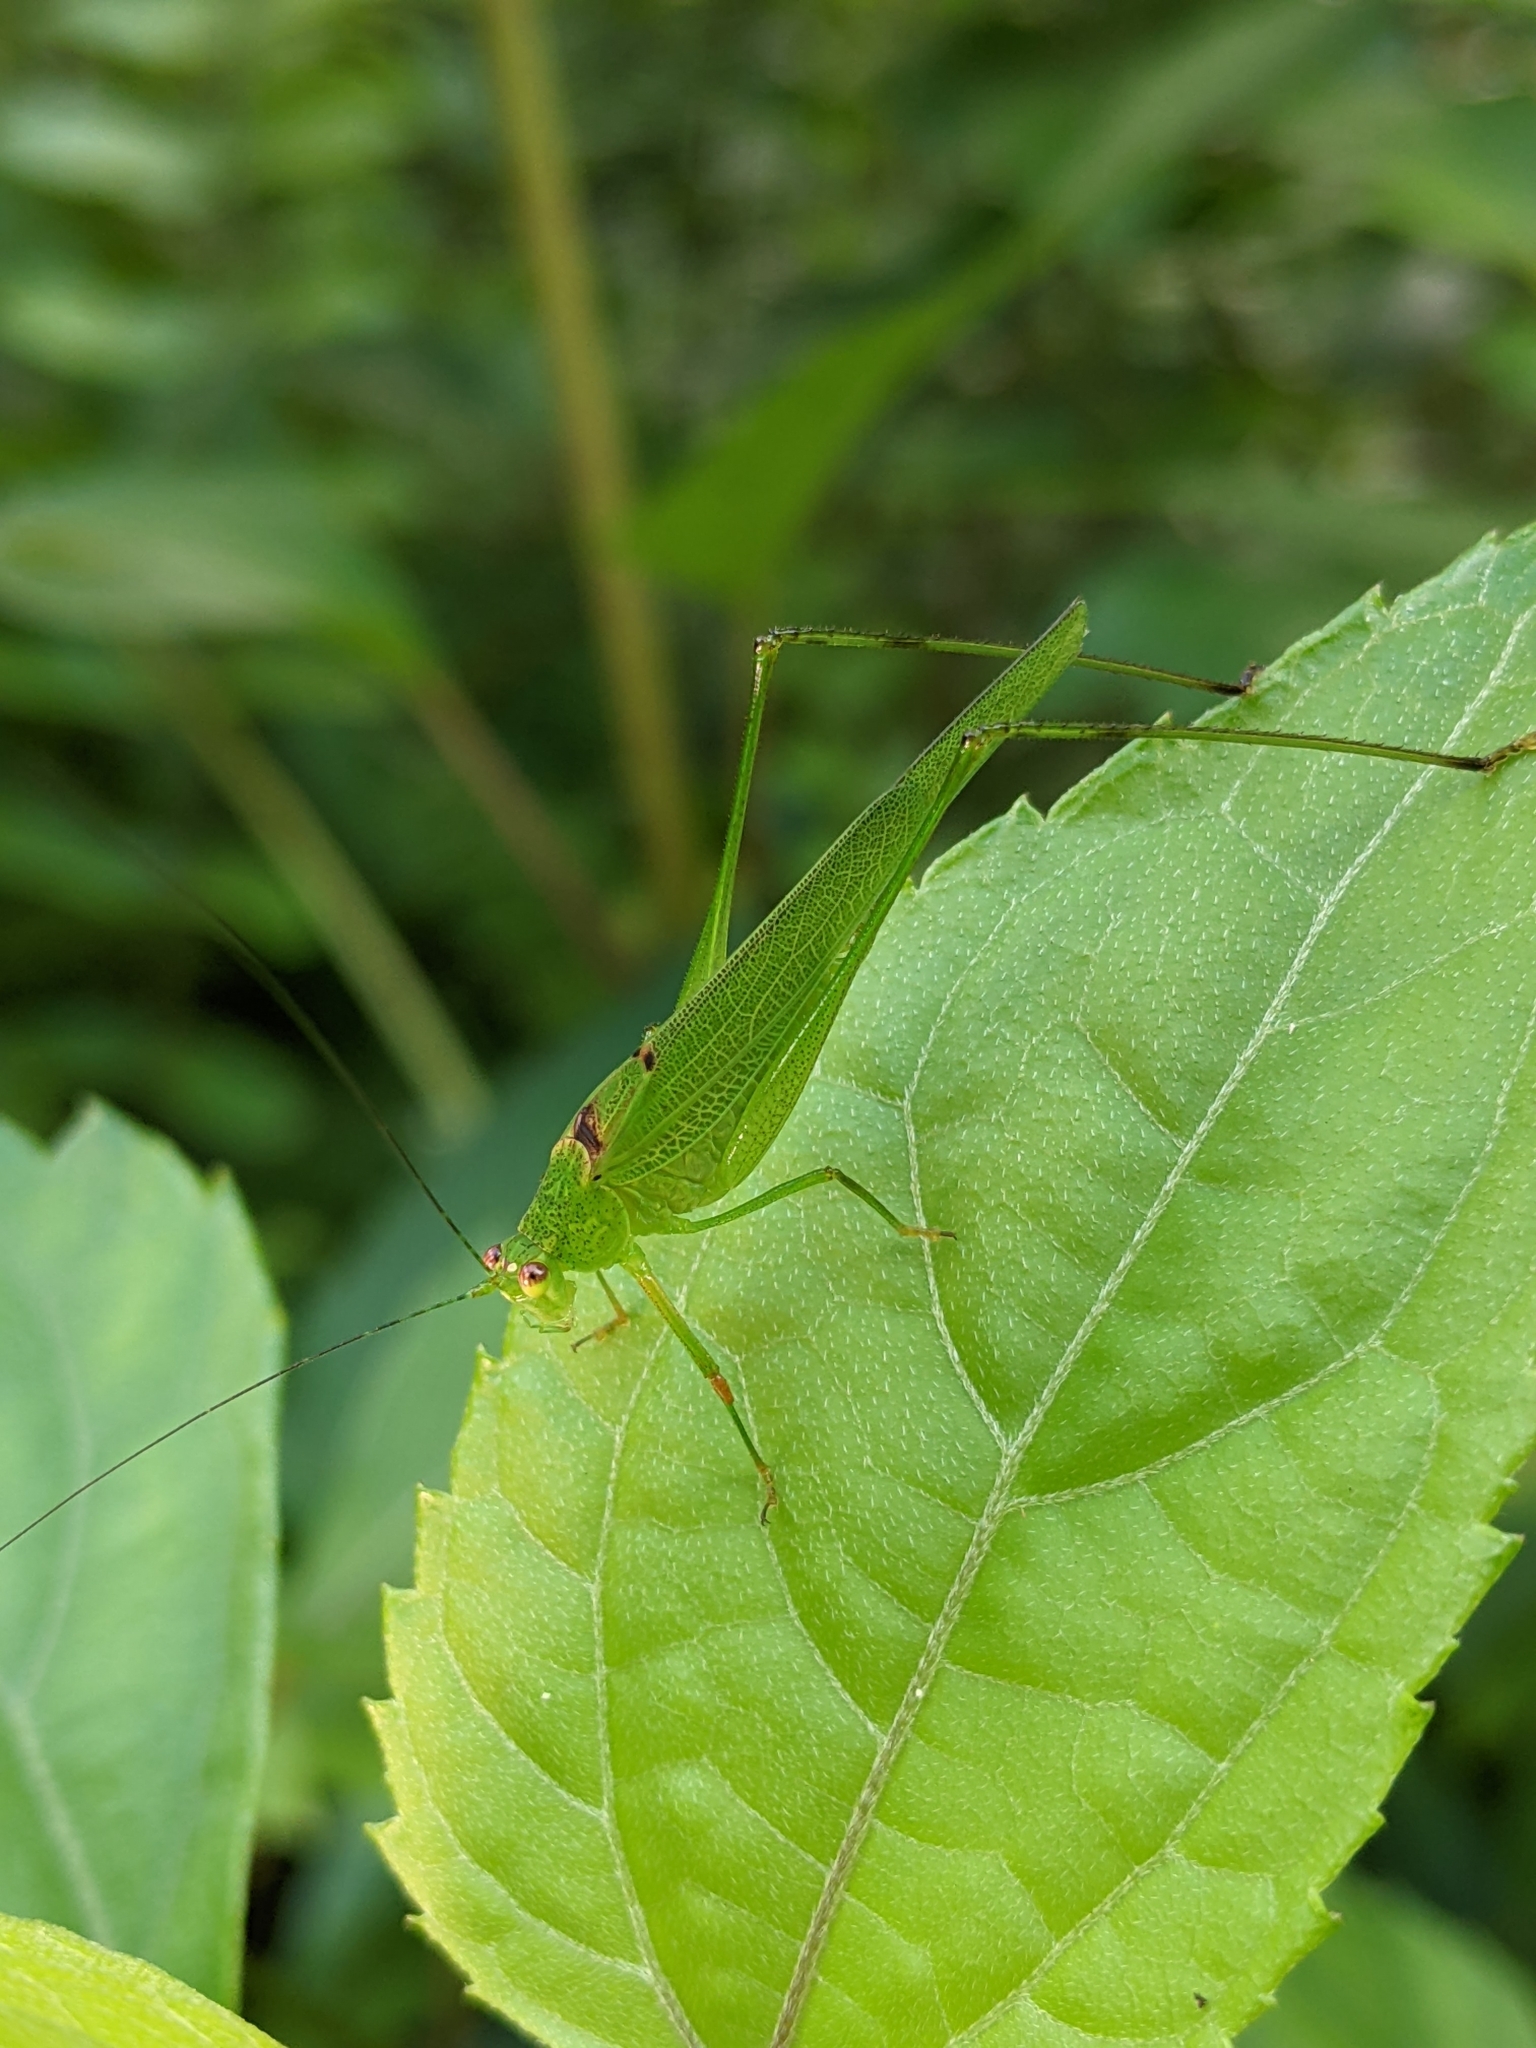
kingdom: Animalia
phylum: Arthropoda
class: Insecta
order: Orthoptera
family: Tettigoniidae
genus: Phaneroptera
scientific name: Phaneroptera brevis
